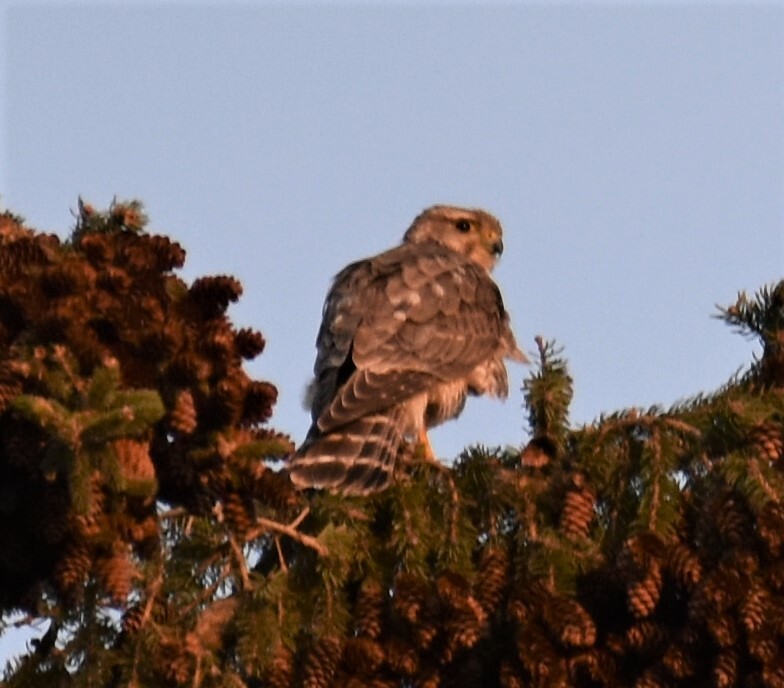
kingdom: Animalia
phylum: Chordata
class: Aves
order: Falconiformes
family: Falconidae
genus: Falco
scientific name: Falco columbarius
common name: Merlin
